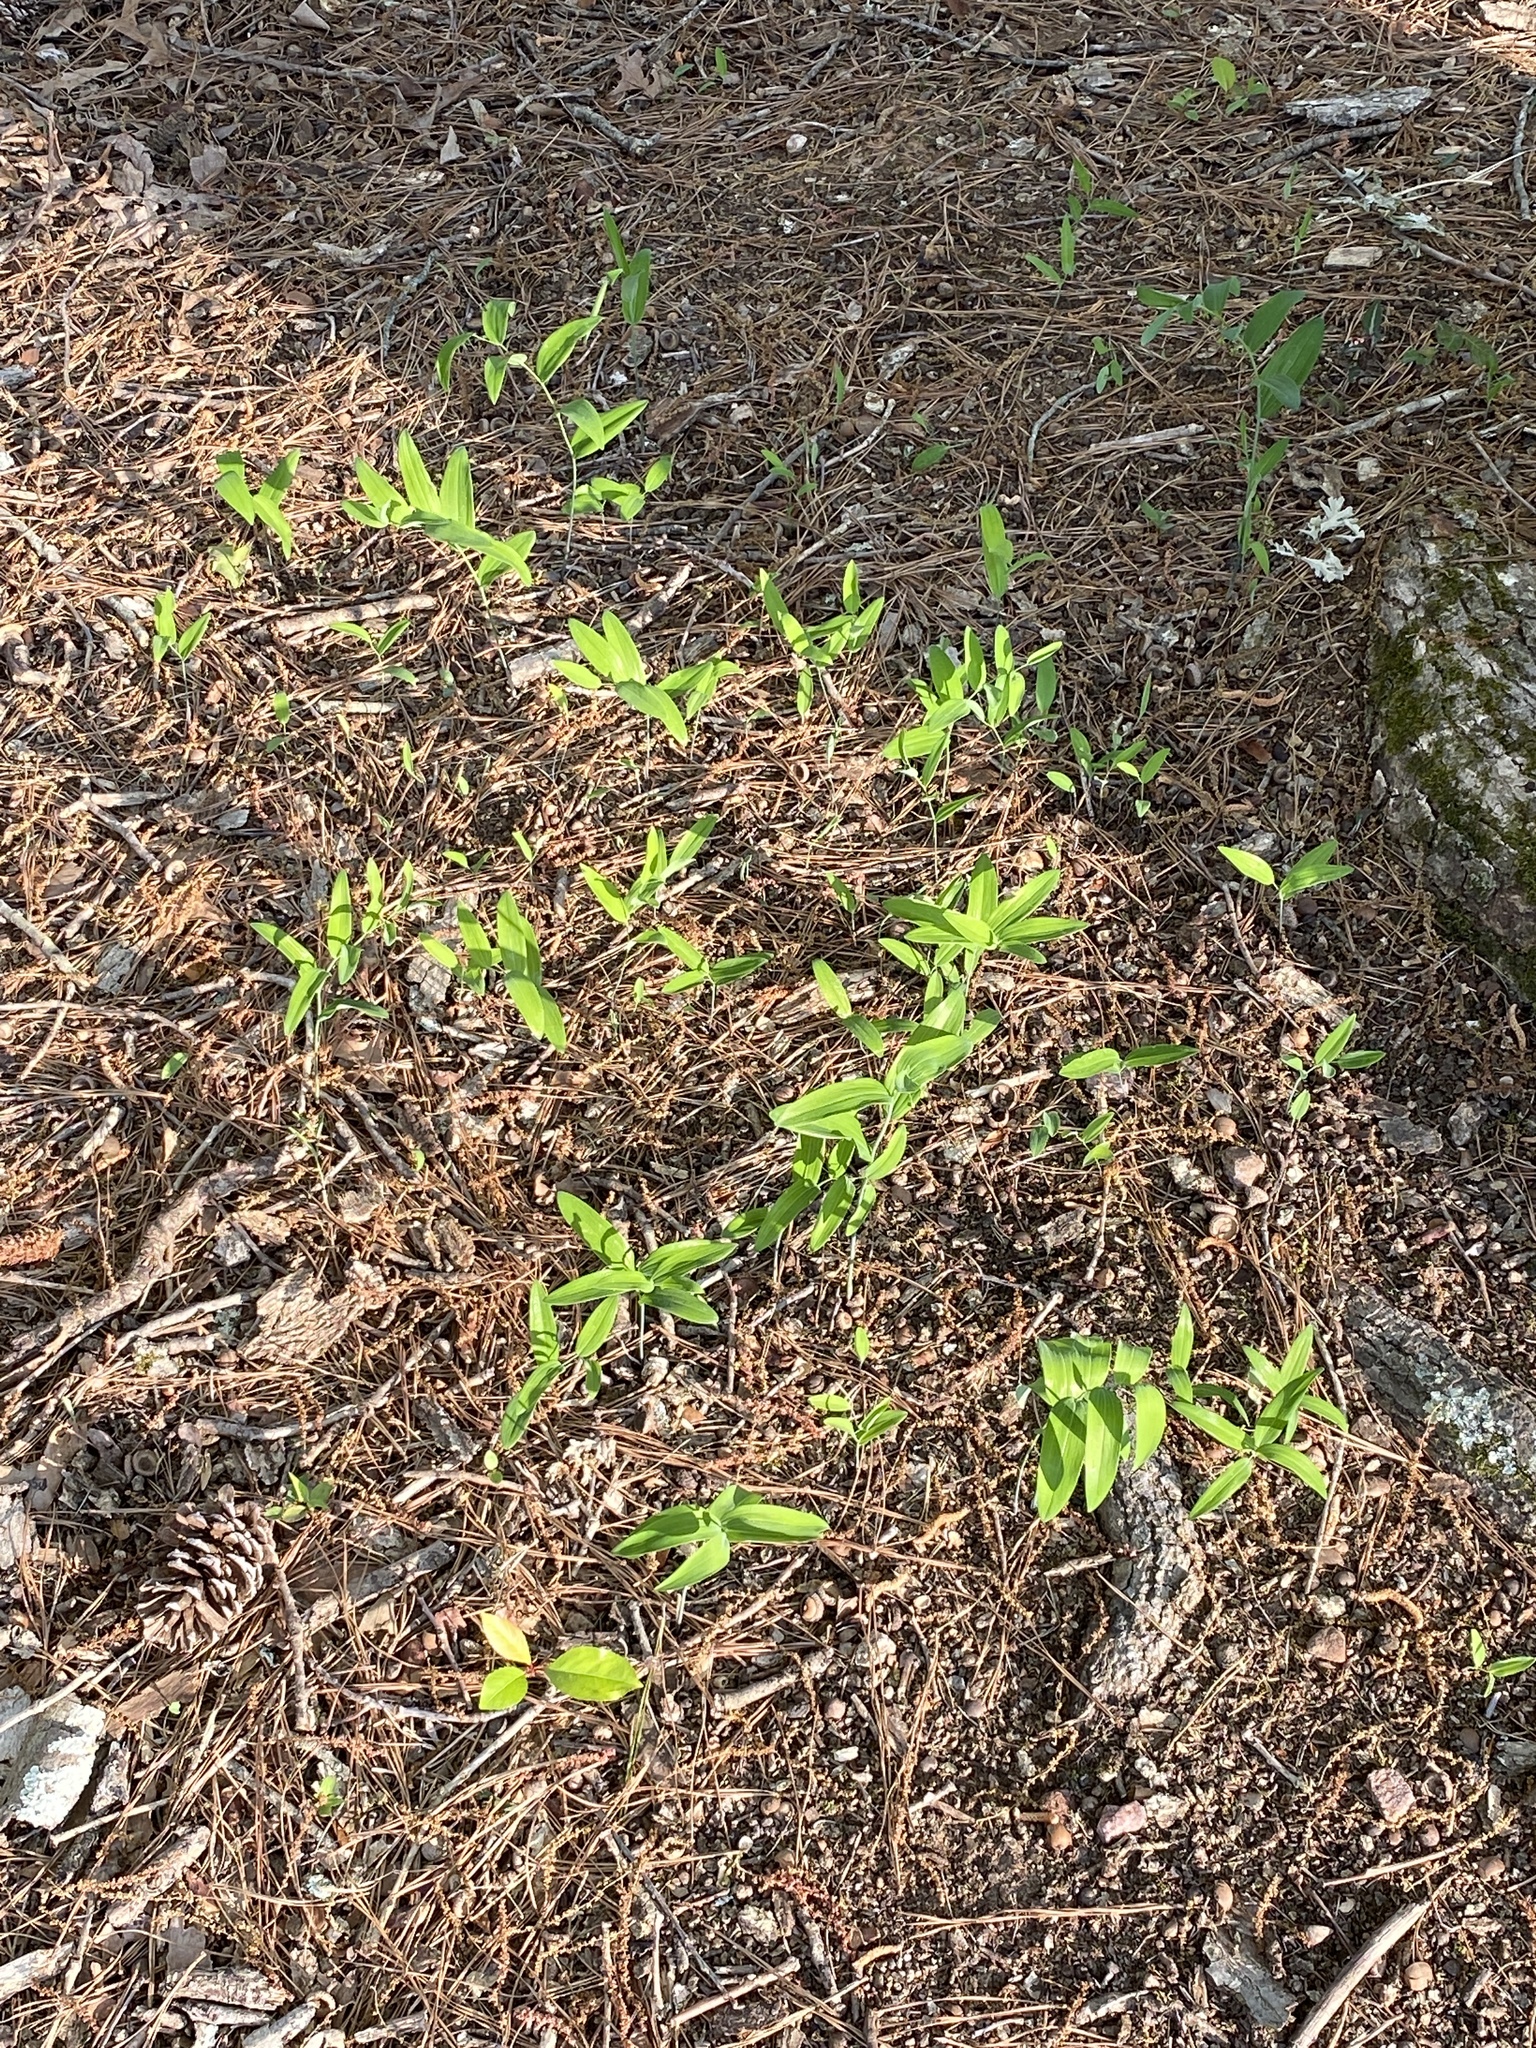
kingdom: Plantae
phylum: Tracheophyta
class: Liliopsida
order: Asparagales
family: Asparagaceae
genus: Polygonatum
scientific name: Polygonatum biflorum
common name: American solomon's-seal
